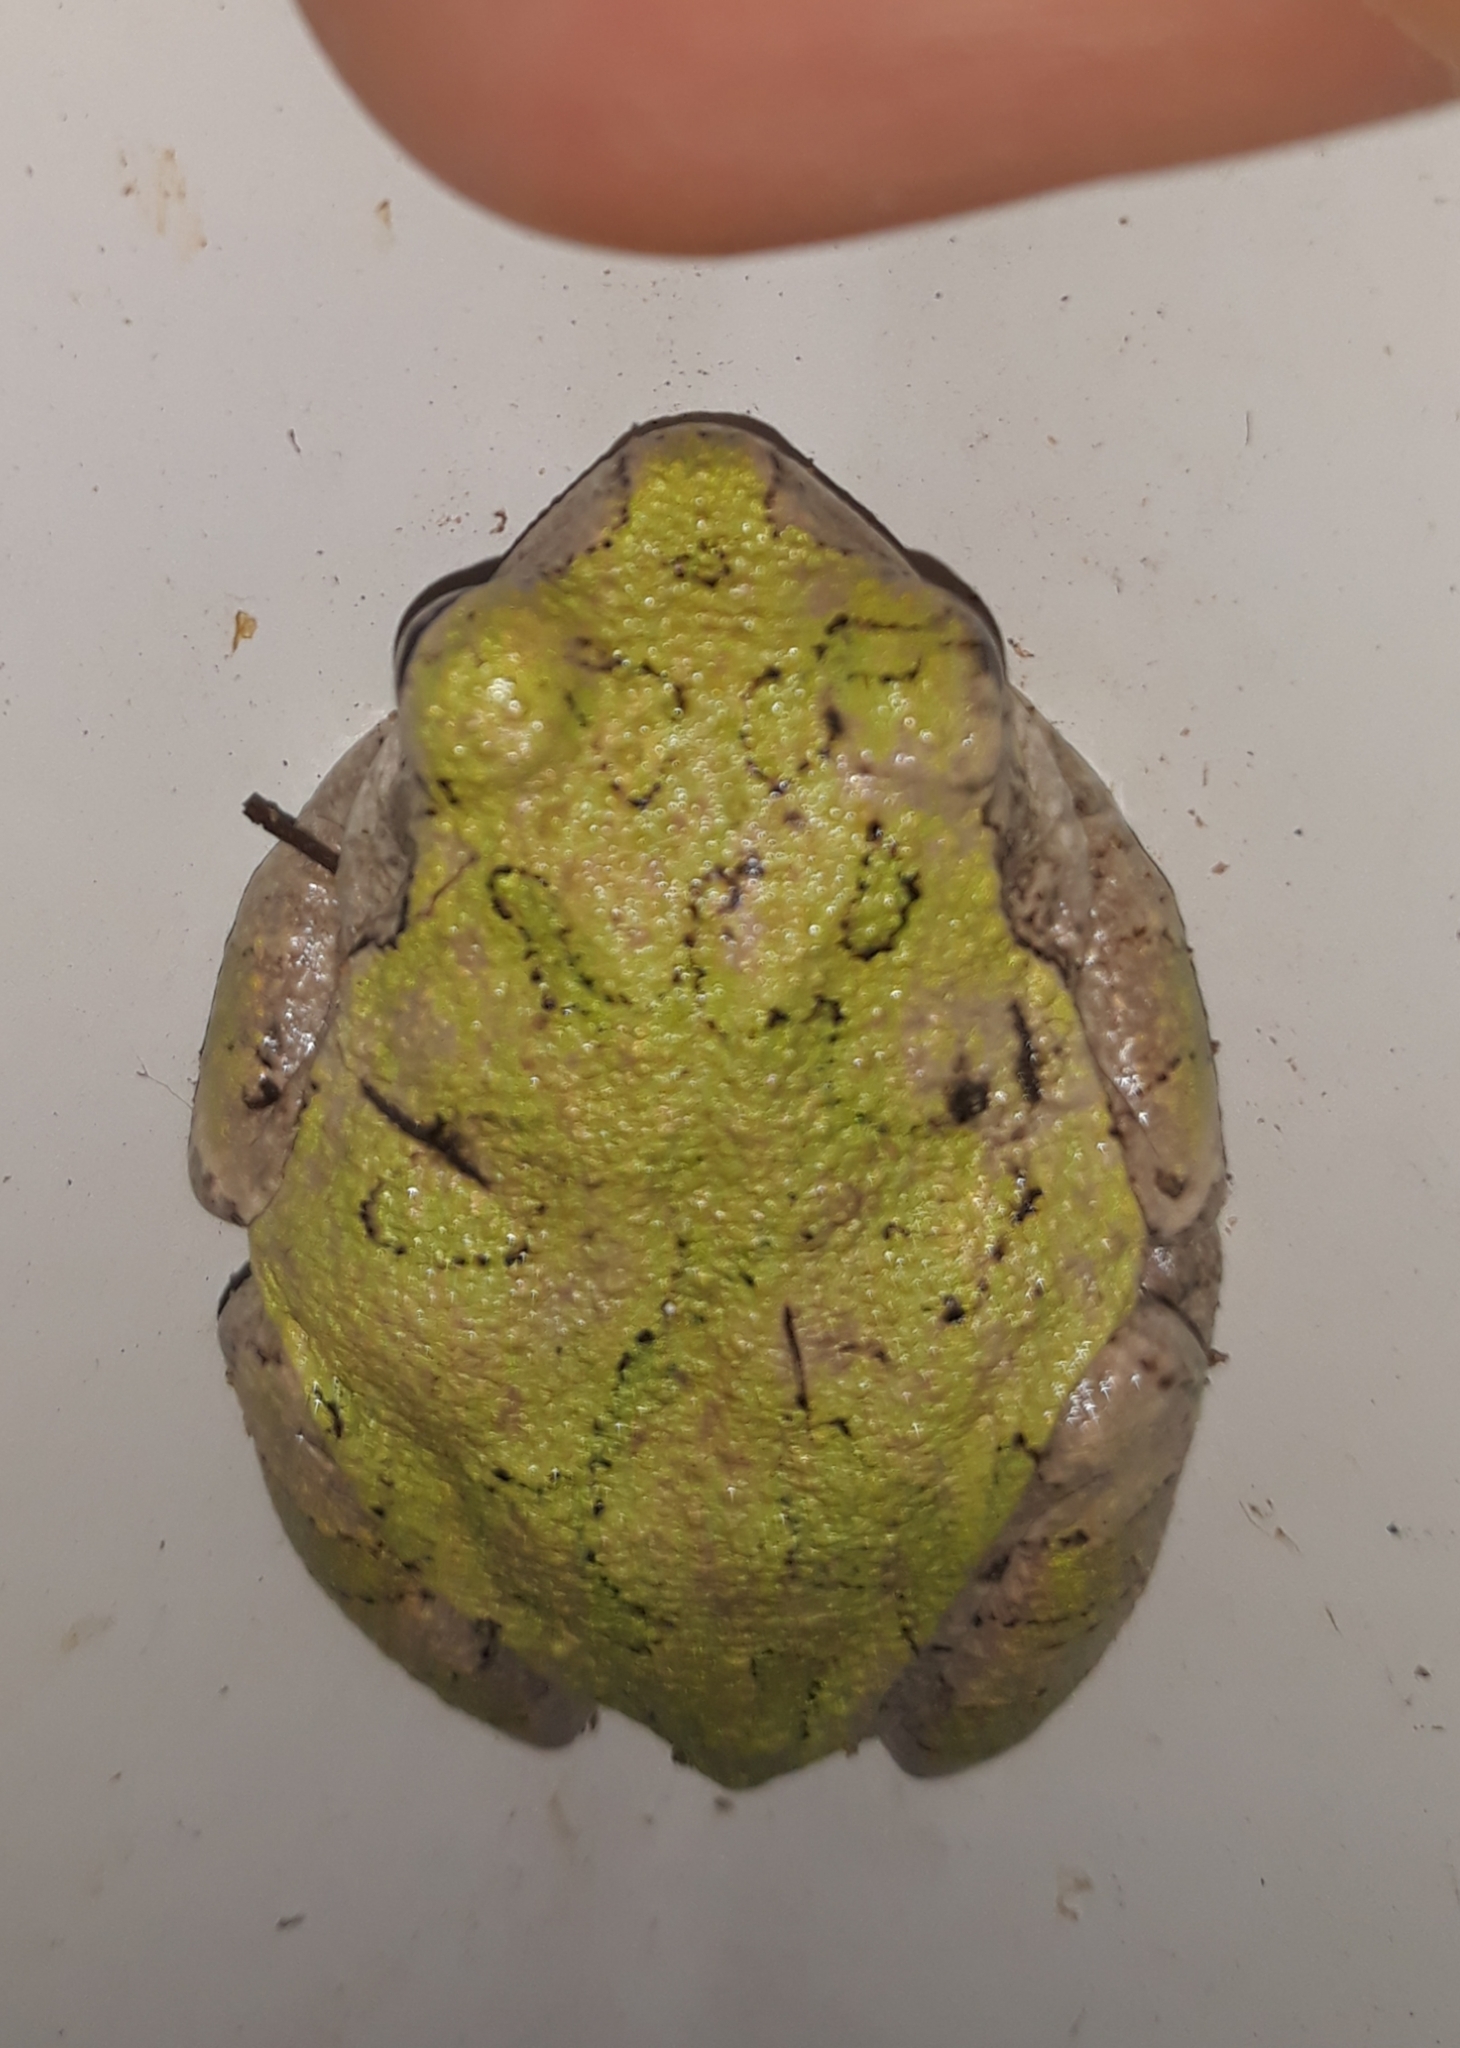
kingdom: Animalia
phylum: Chordata
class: Amphibia
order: Anura
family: Hylidae
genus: Hyla
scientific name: Hyla
